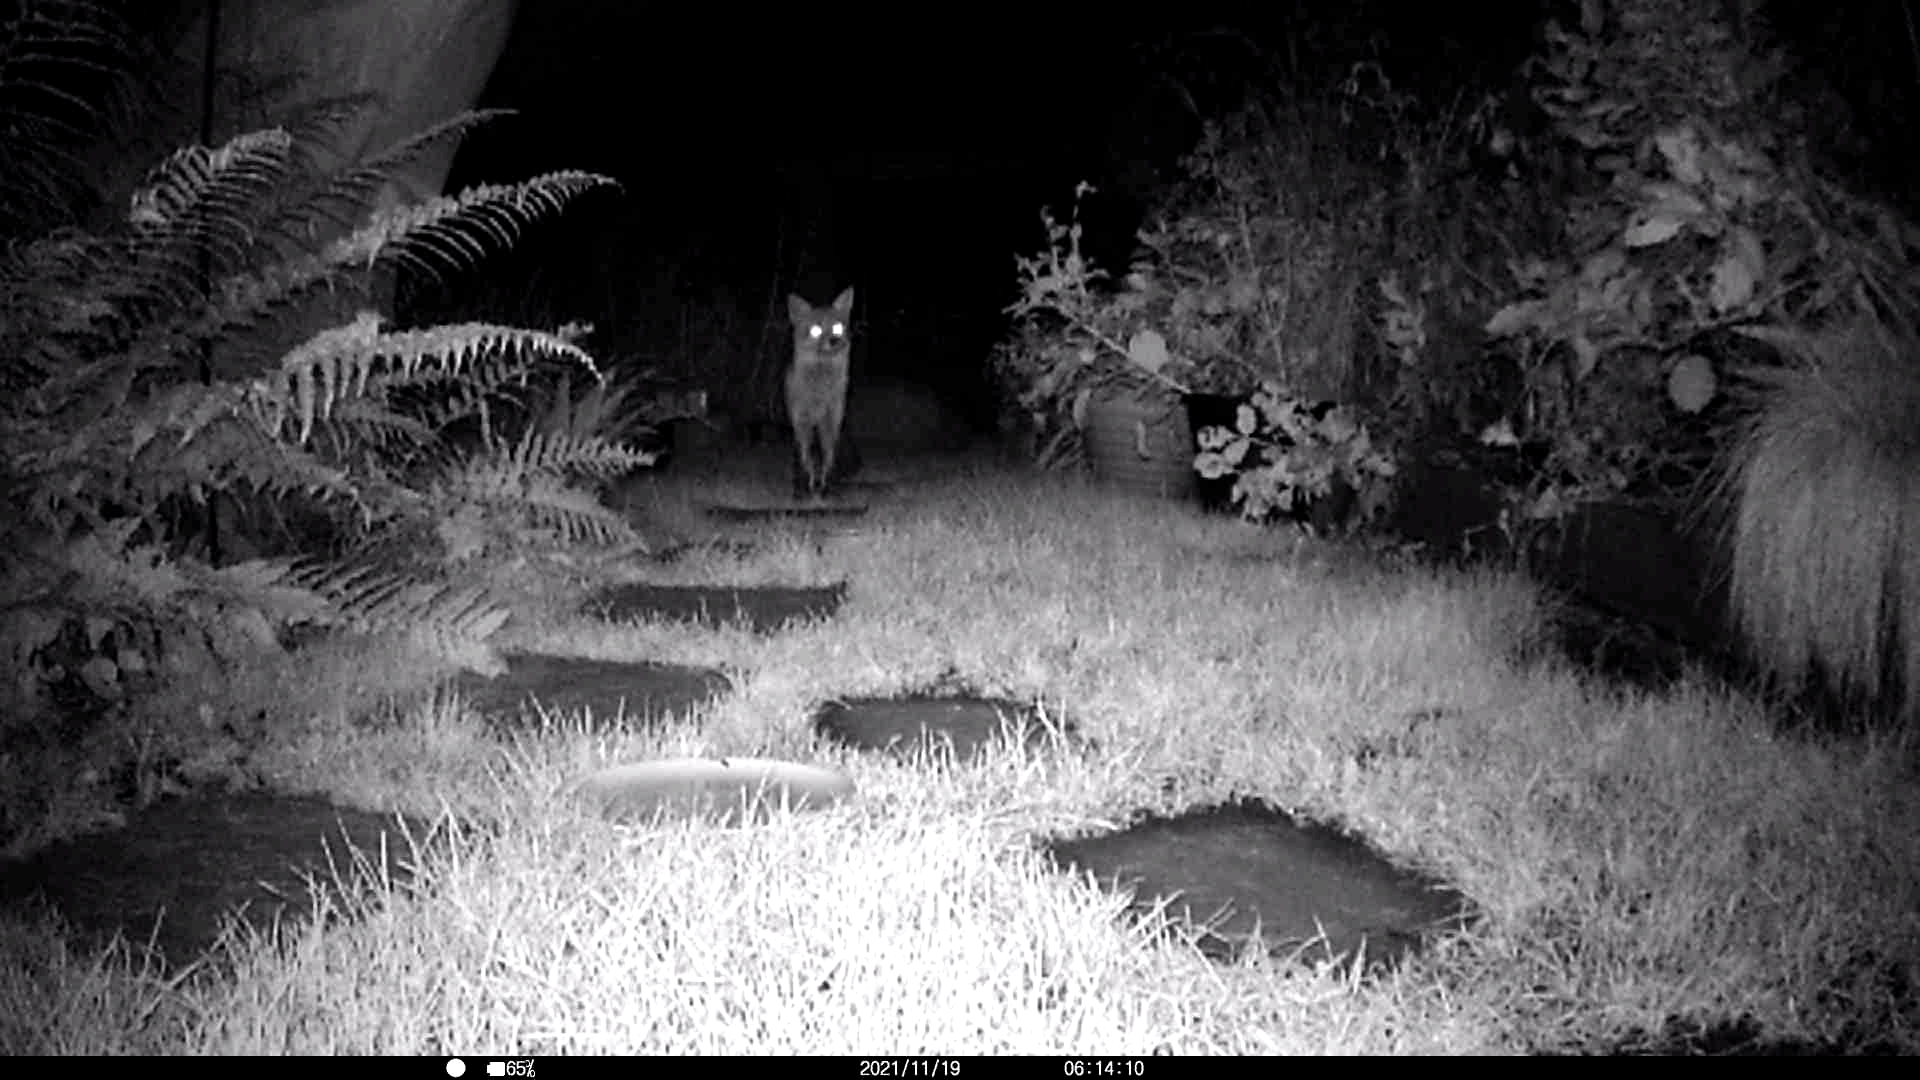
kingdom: Animalia
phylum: Chordata
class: Mammalia
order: Carnivora
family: Canidae
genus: Vulpes
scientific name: Vulpes vulpes
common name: Red fox
